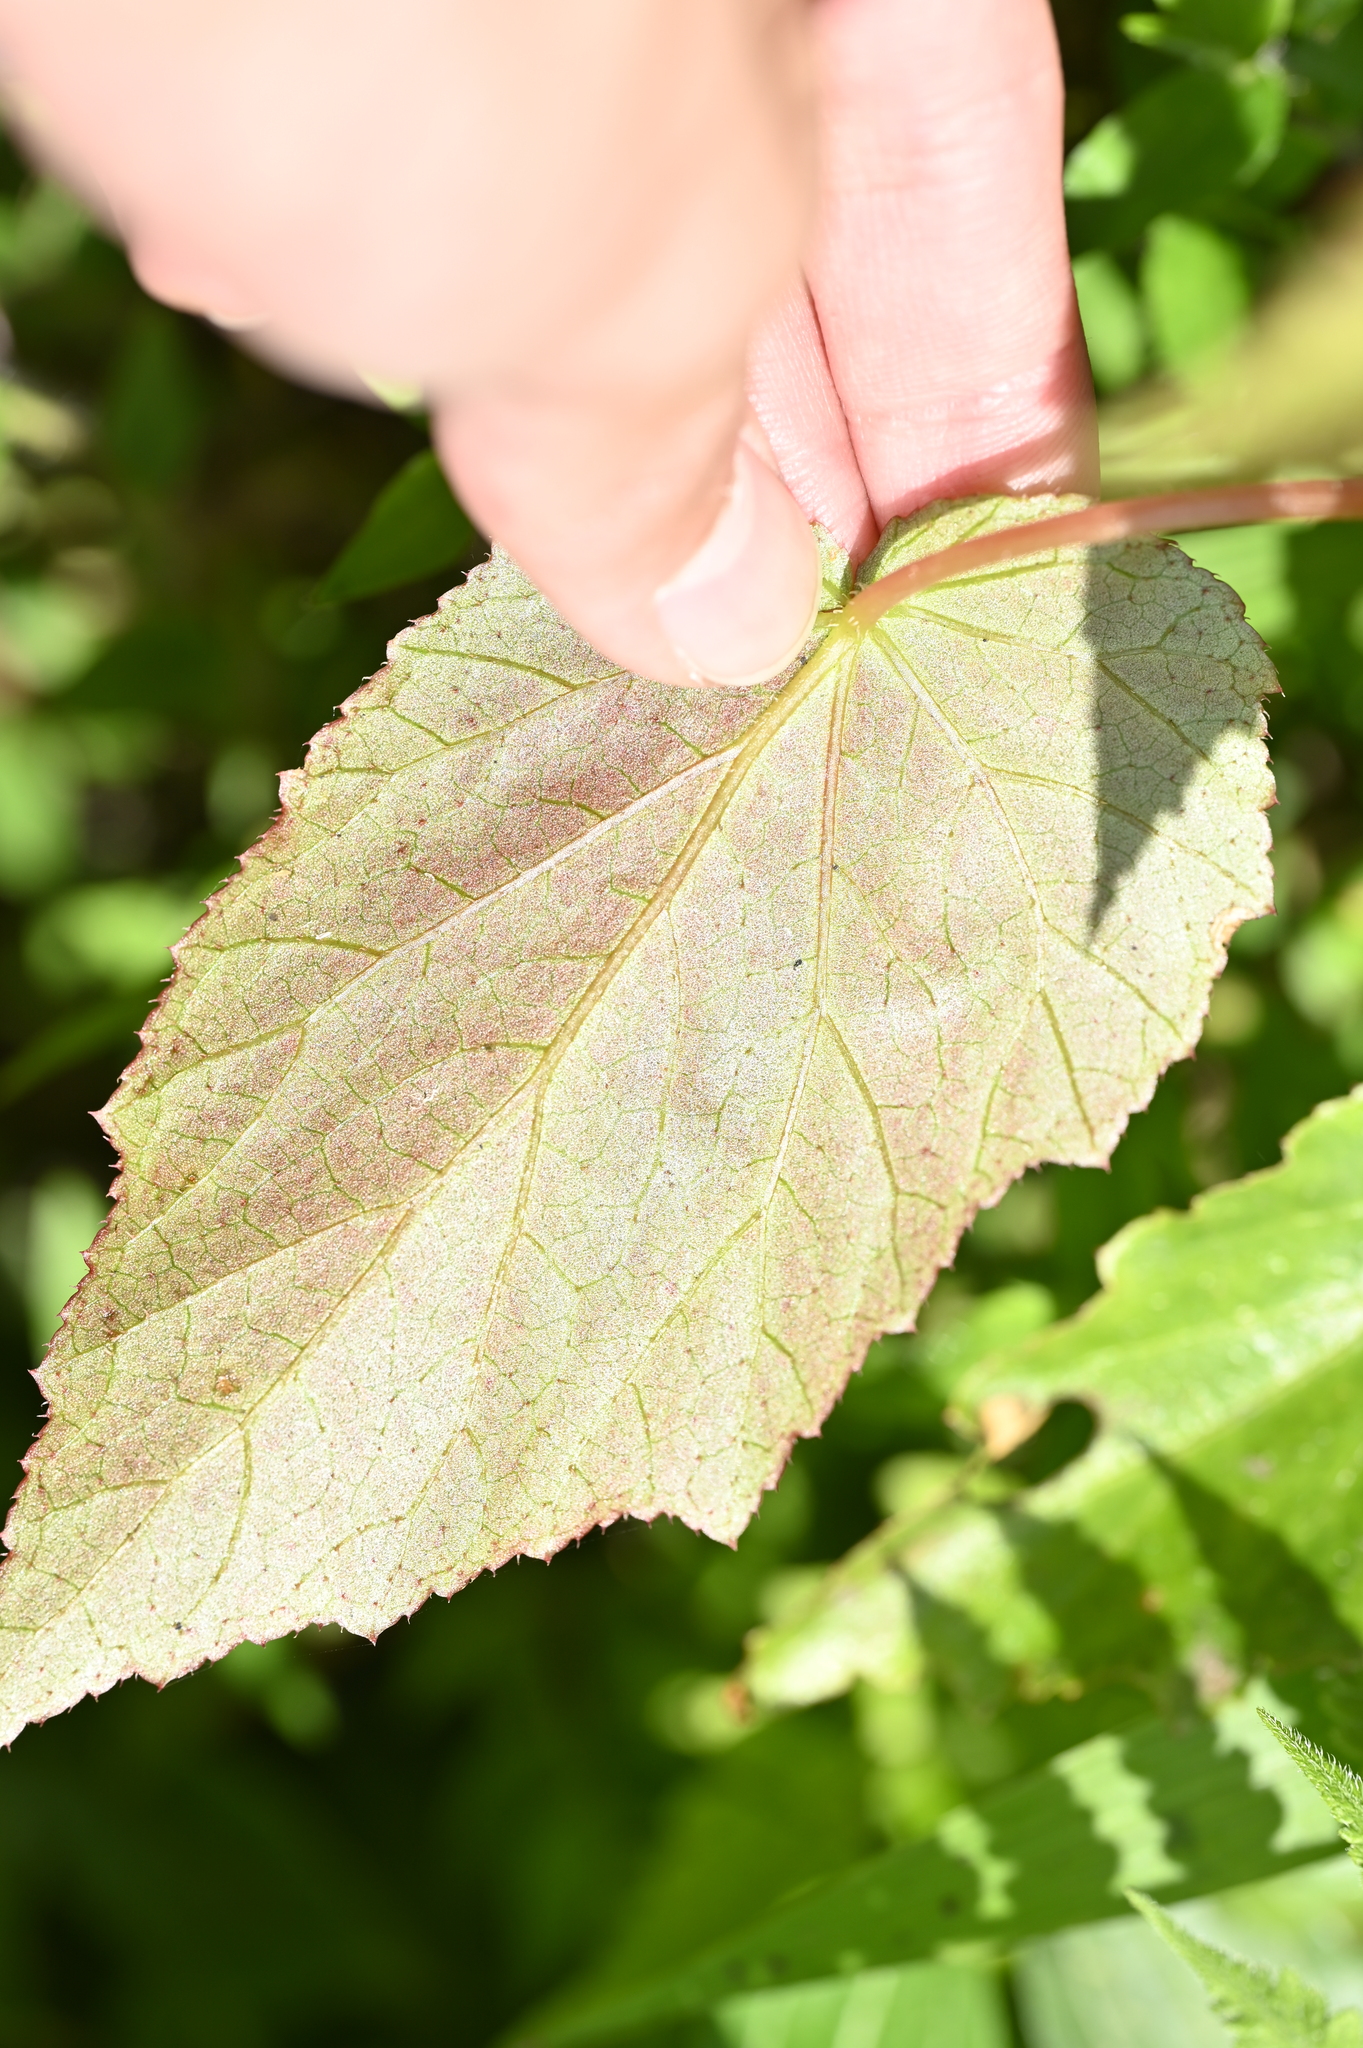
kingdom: Plantae
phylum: Tracheophyta
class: Magnoliopsida
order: Cucurbitales
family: Begoniaceae
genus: Begonia
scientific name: Begonia buimontana
